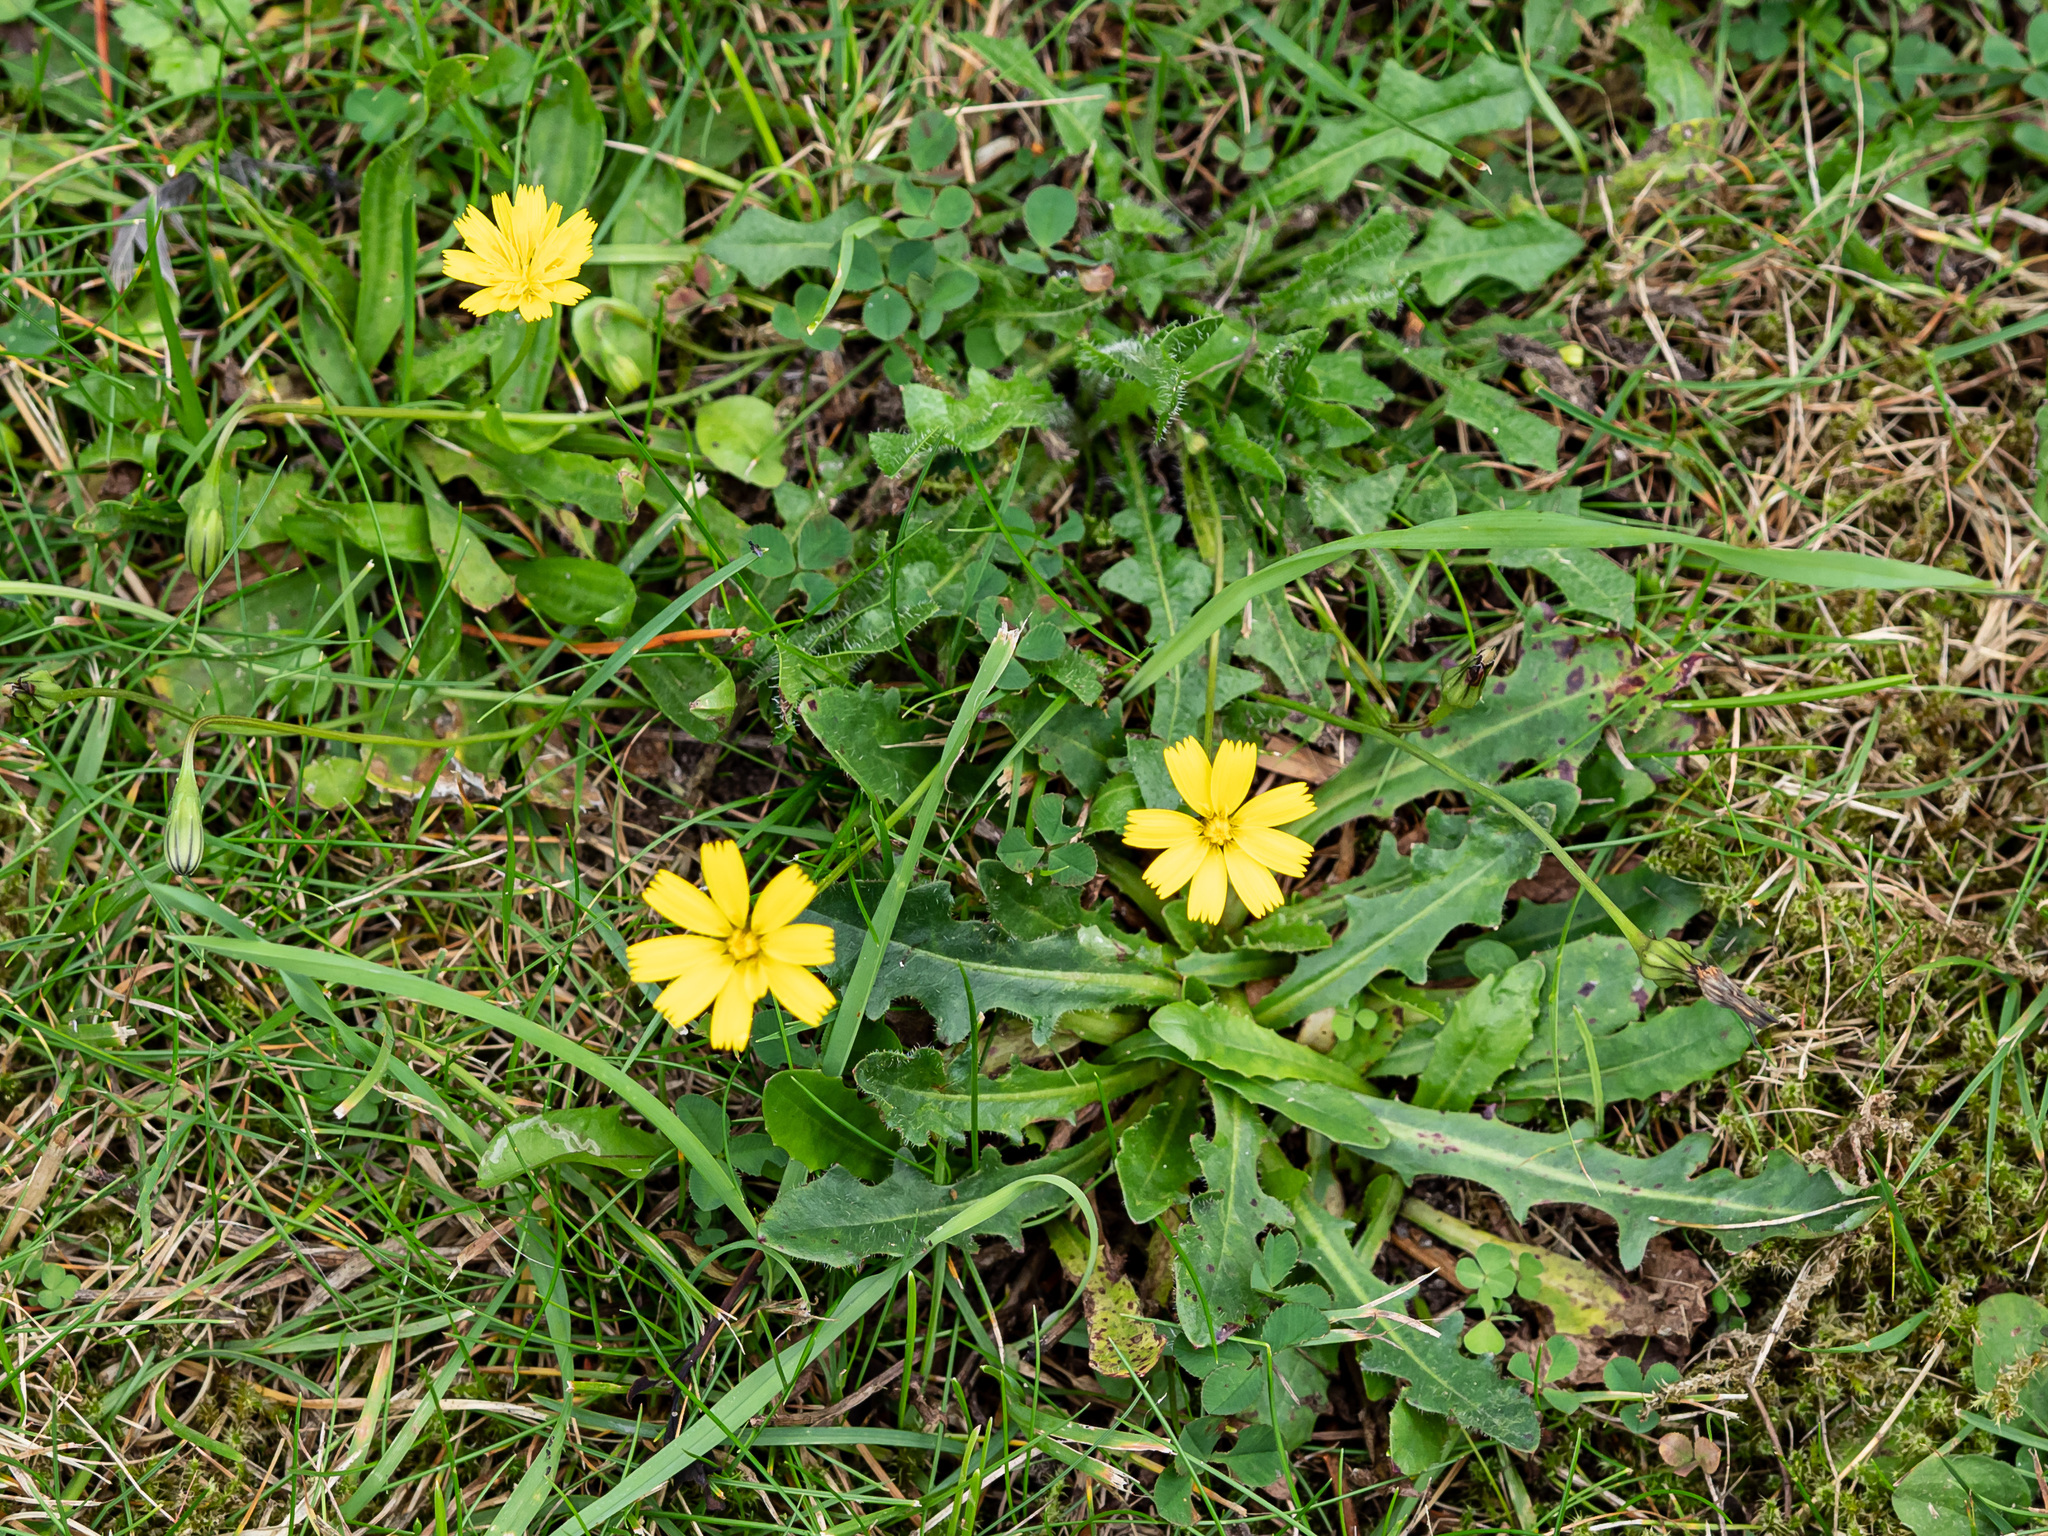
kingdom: Plantae
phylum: Tracheophyta
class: Magnoliopsida
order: Asterales
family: Asteraceae
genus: Hypochaeris
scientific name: Hypochaeris radicata
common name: Flatweed
